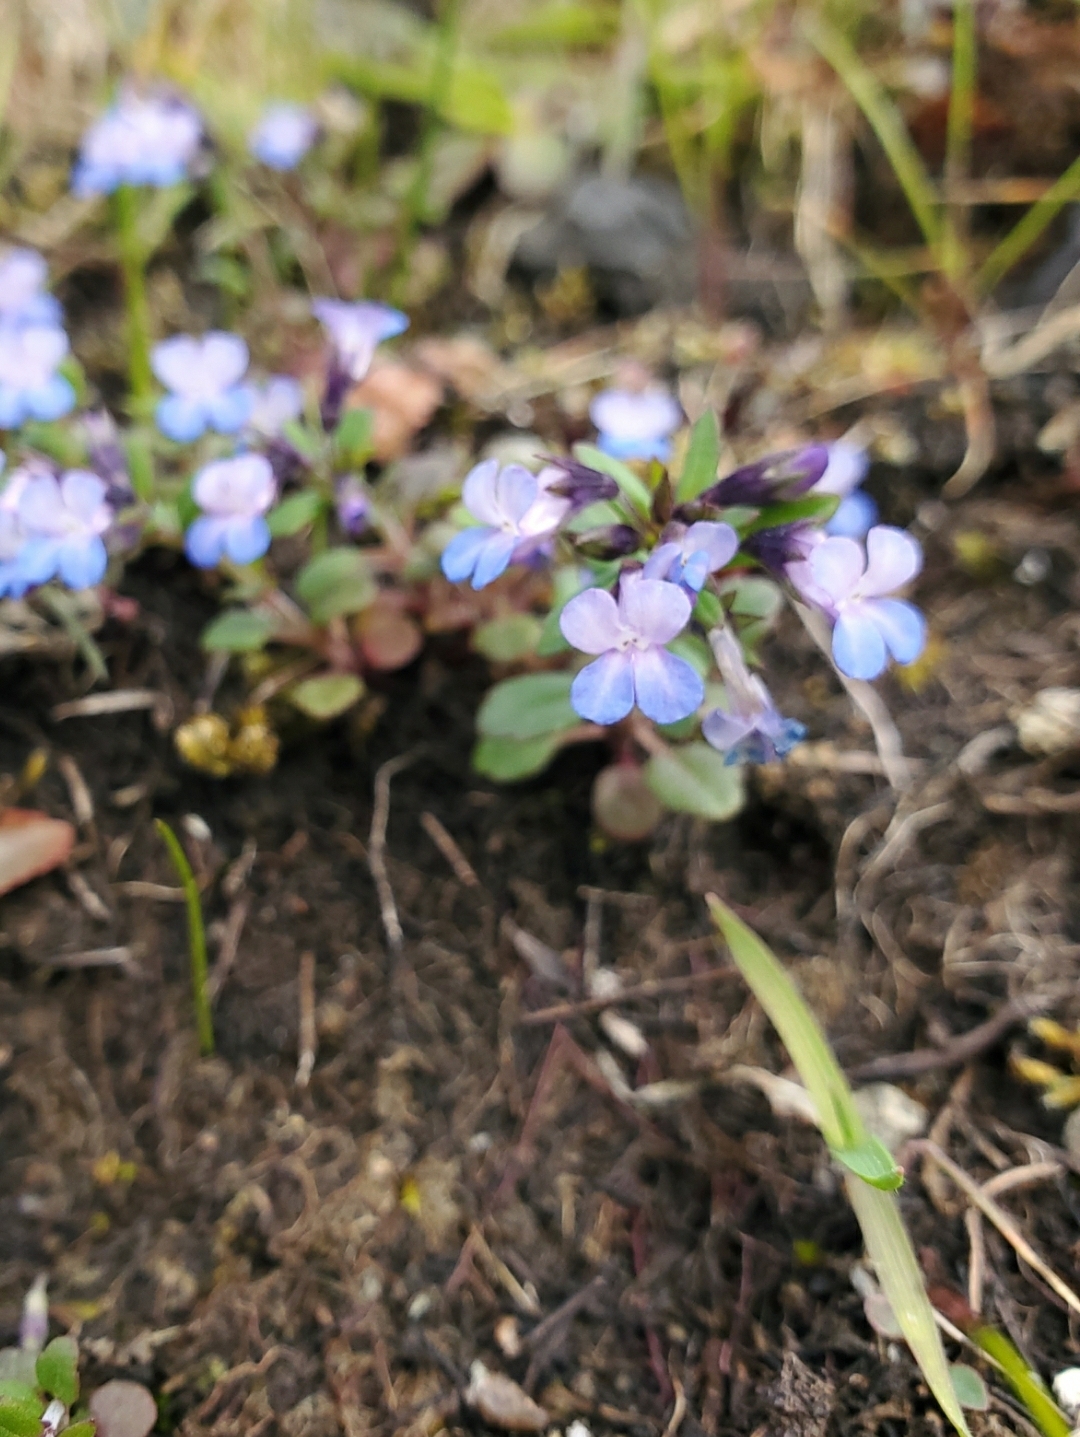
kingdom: Plantae
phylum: Tracheophyta
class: Magnoliopsida
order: Lamiales
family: Plantaginaceae
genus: Collinsia
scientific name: Collinsia parviflora
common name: Blue-lips
